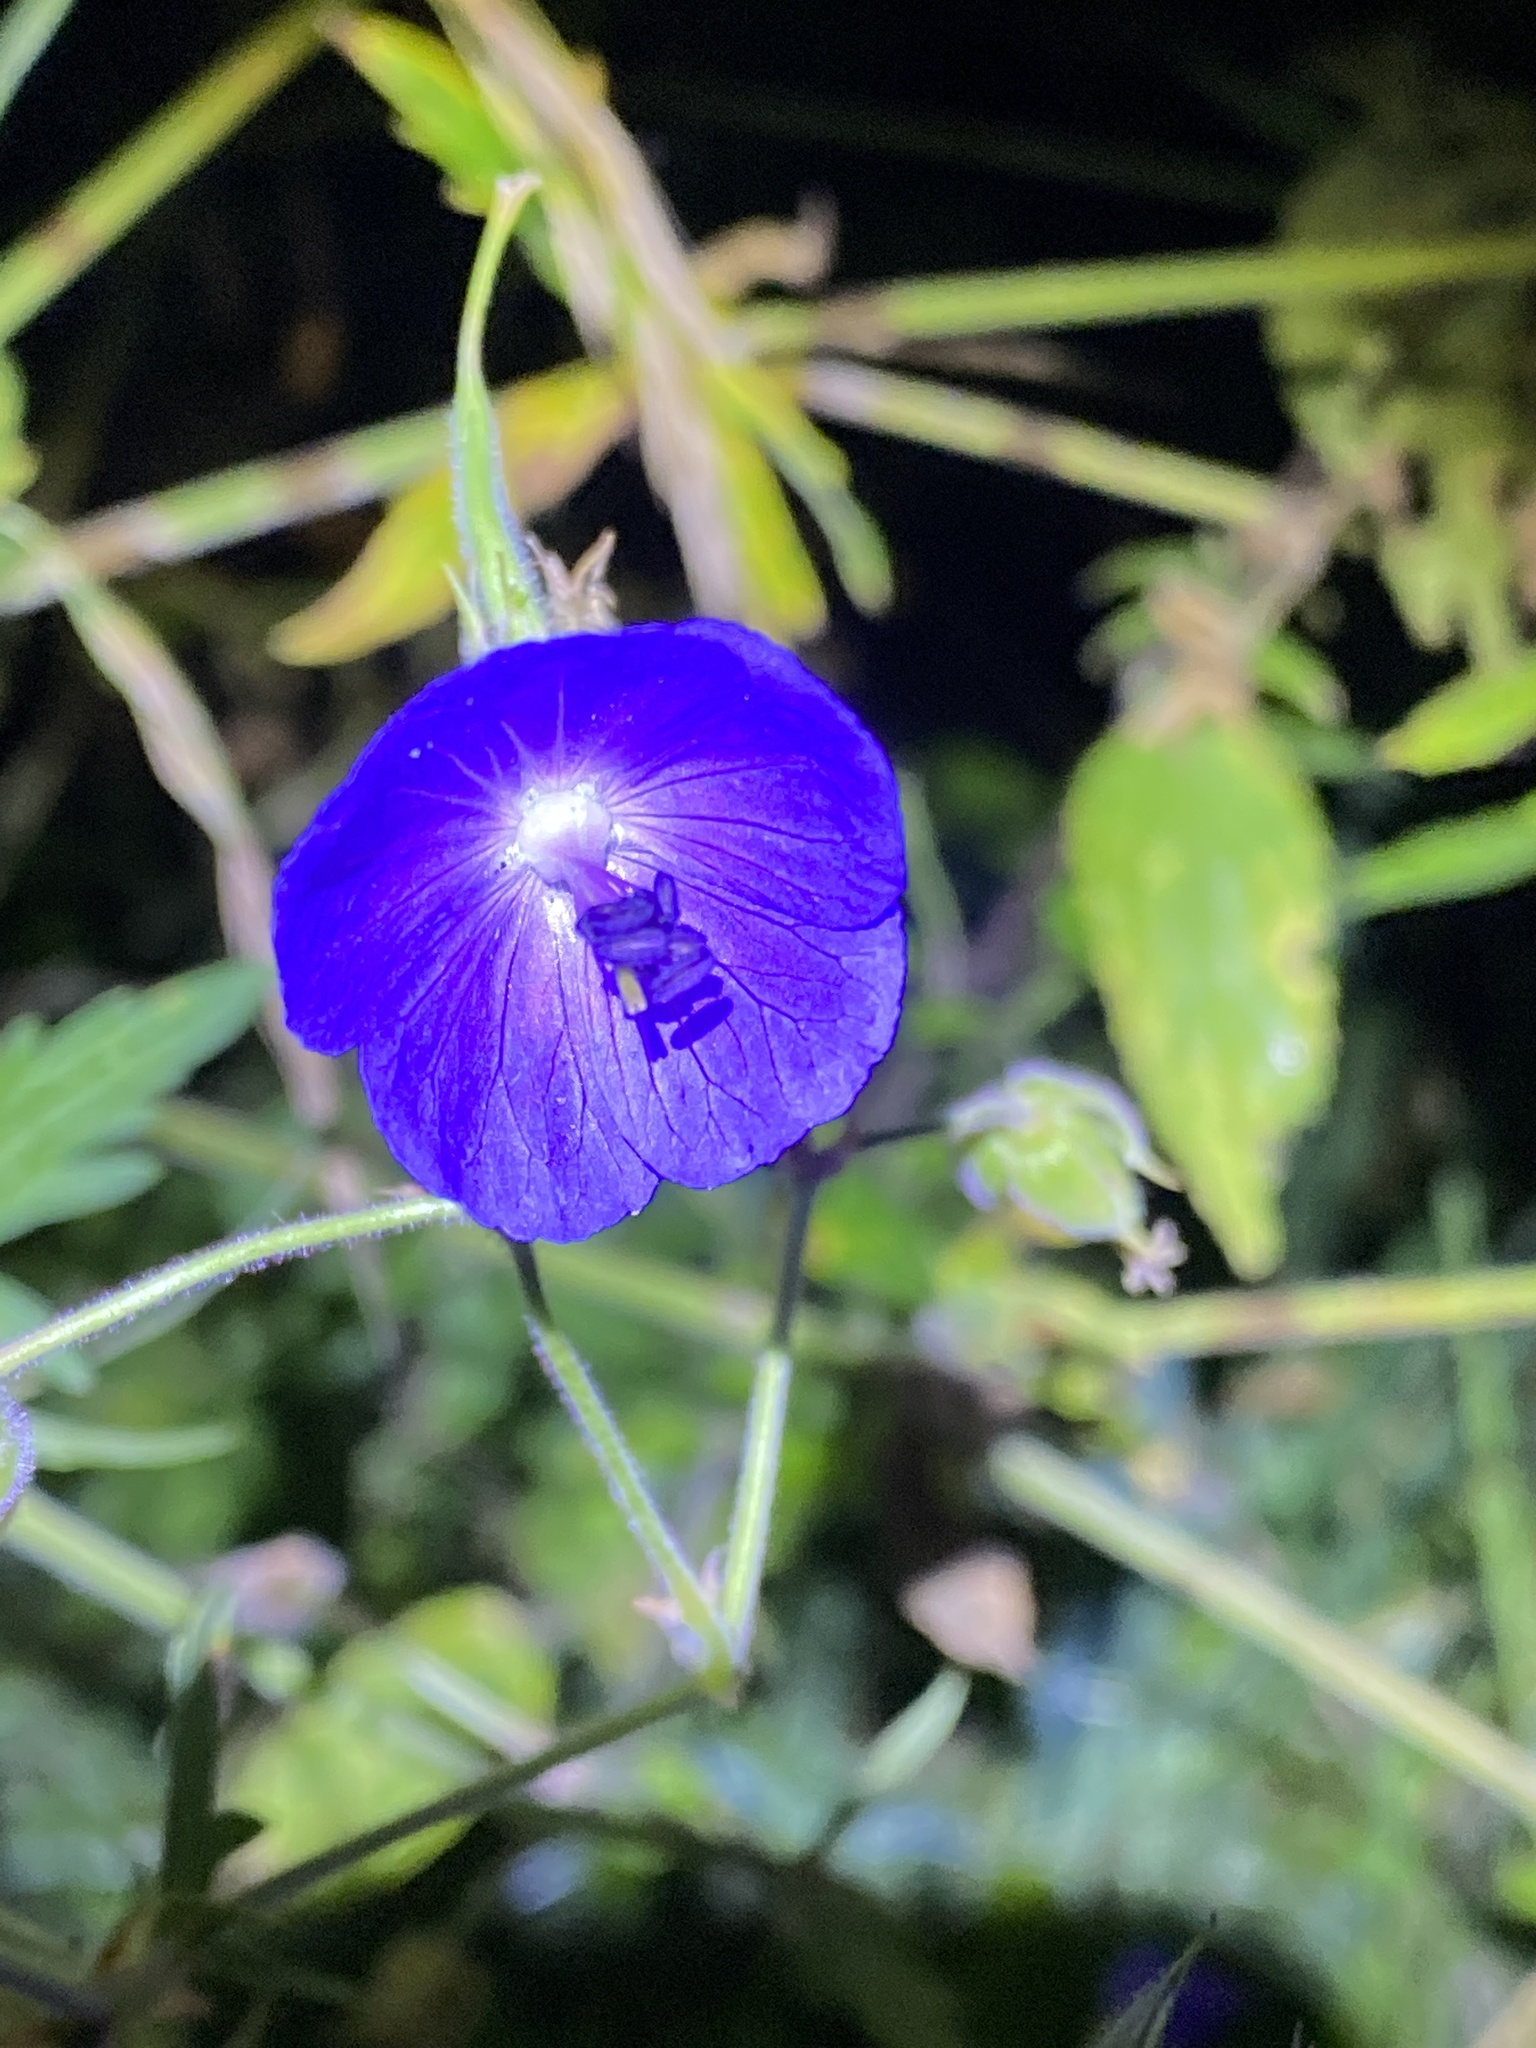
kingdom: Plantae
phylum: Tracheophyta
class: Magnoliopsida
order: Geraniales
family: Geraniaceae
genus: Geranium
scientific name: Geranium pratense
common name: Meadow crane's-bill
